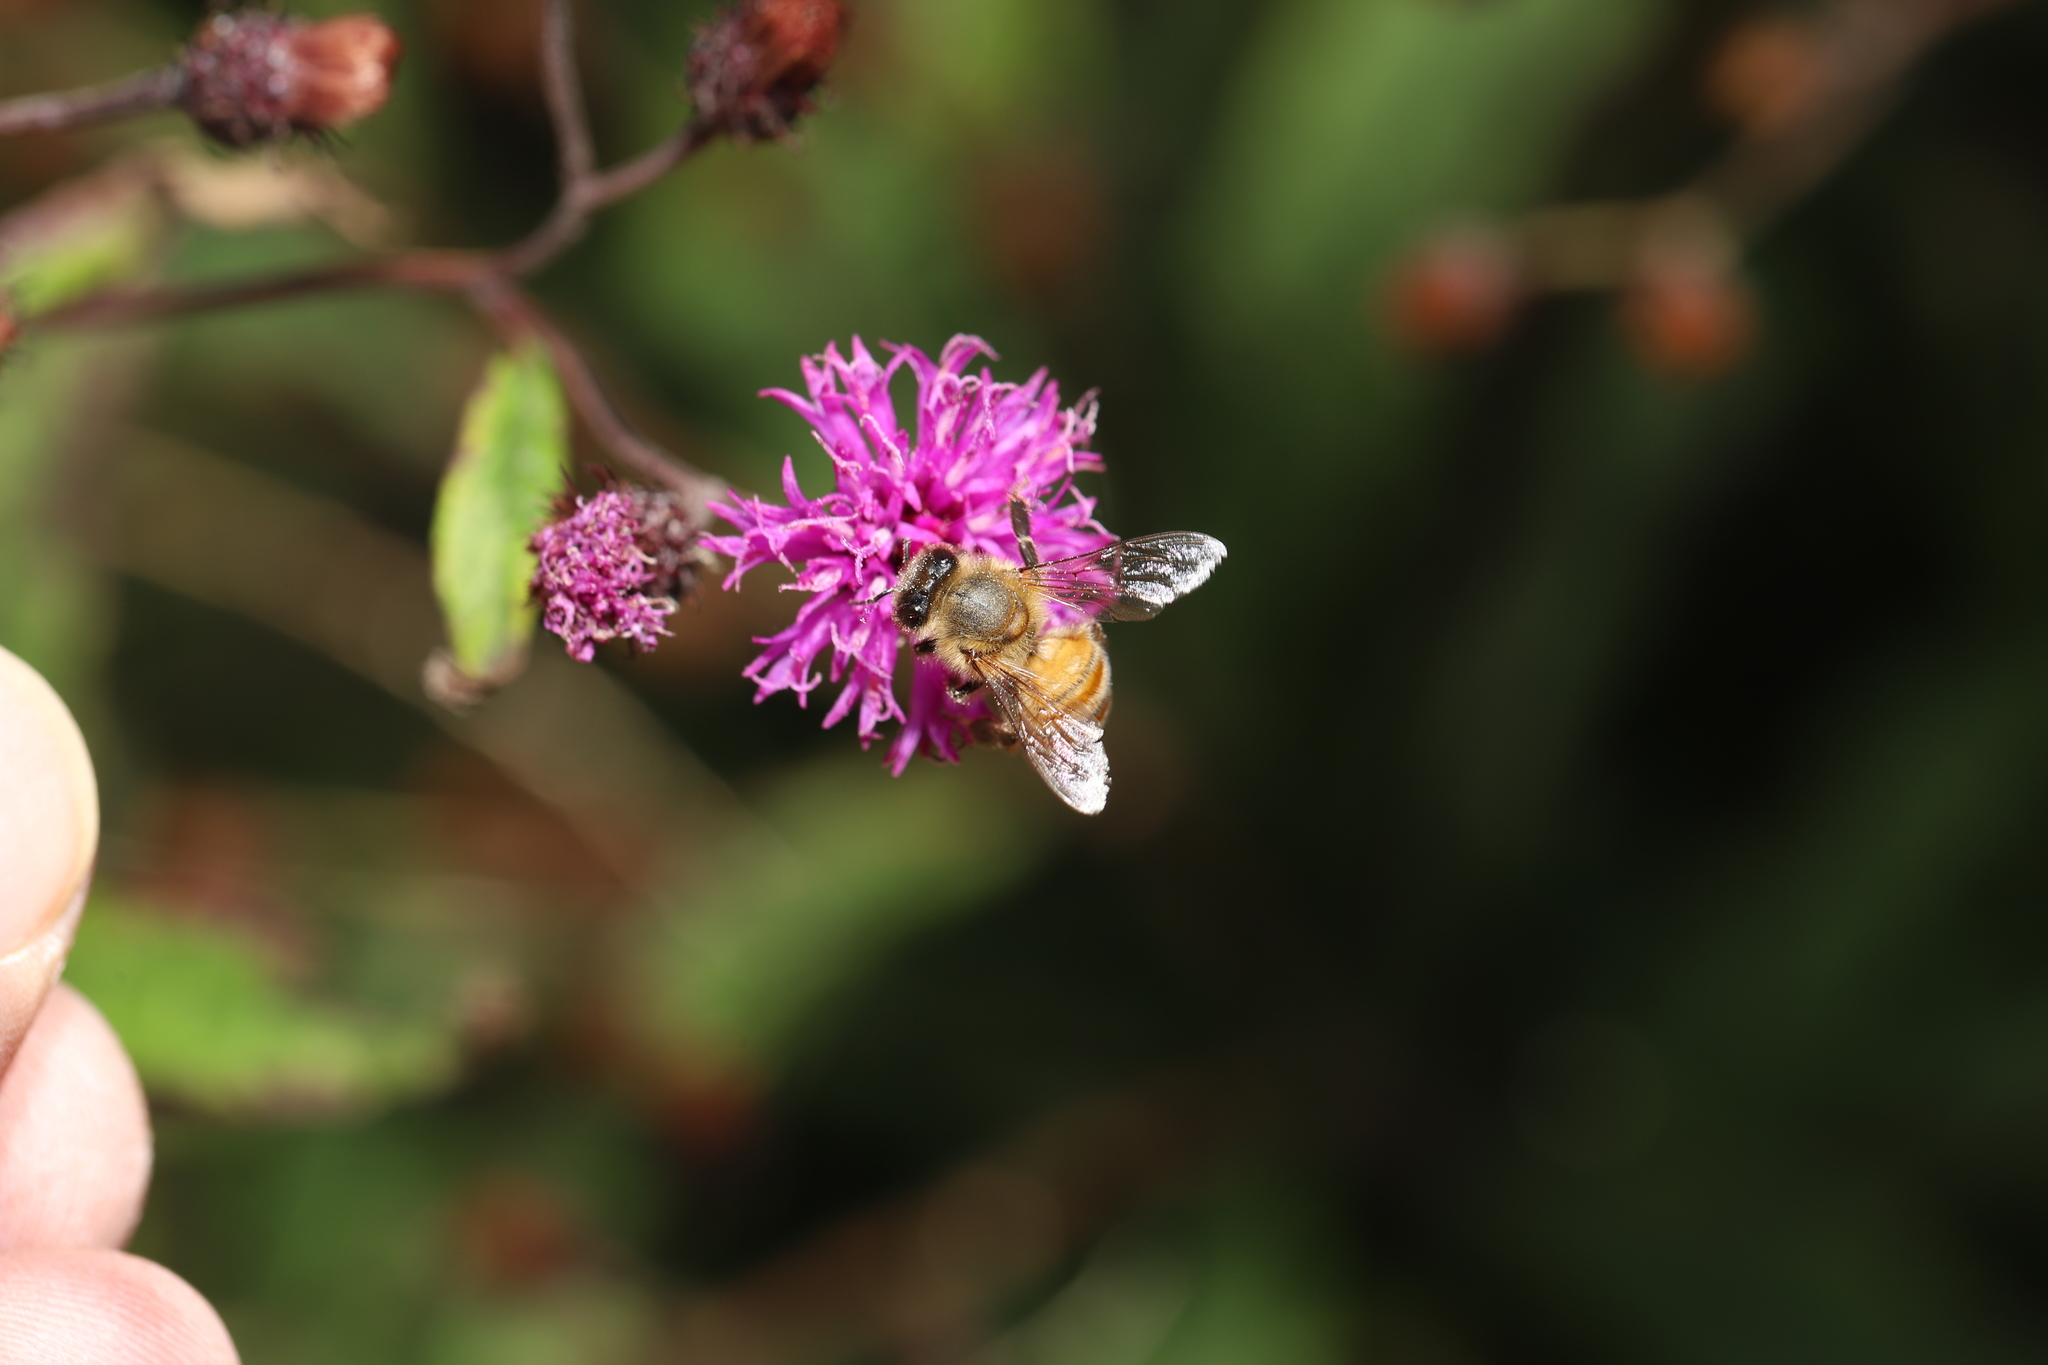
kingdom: Animalia
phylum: Arthropoda
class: Insecta
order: Hymenoptera
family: Apidae
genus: Apis
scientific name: Apis mellifera
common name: Honey bee
